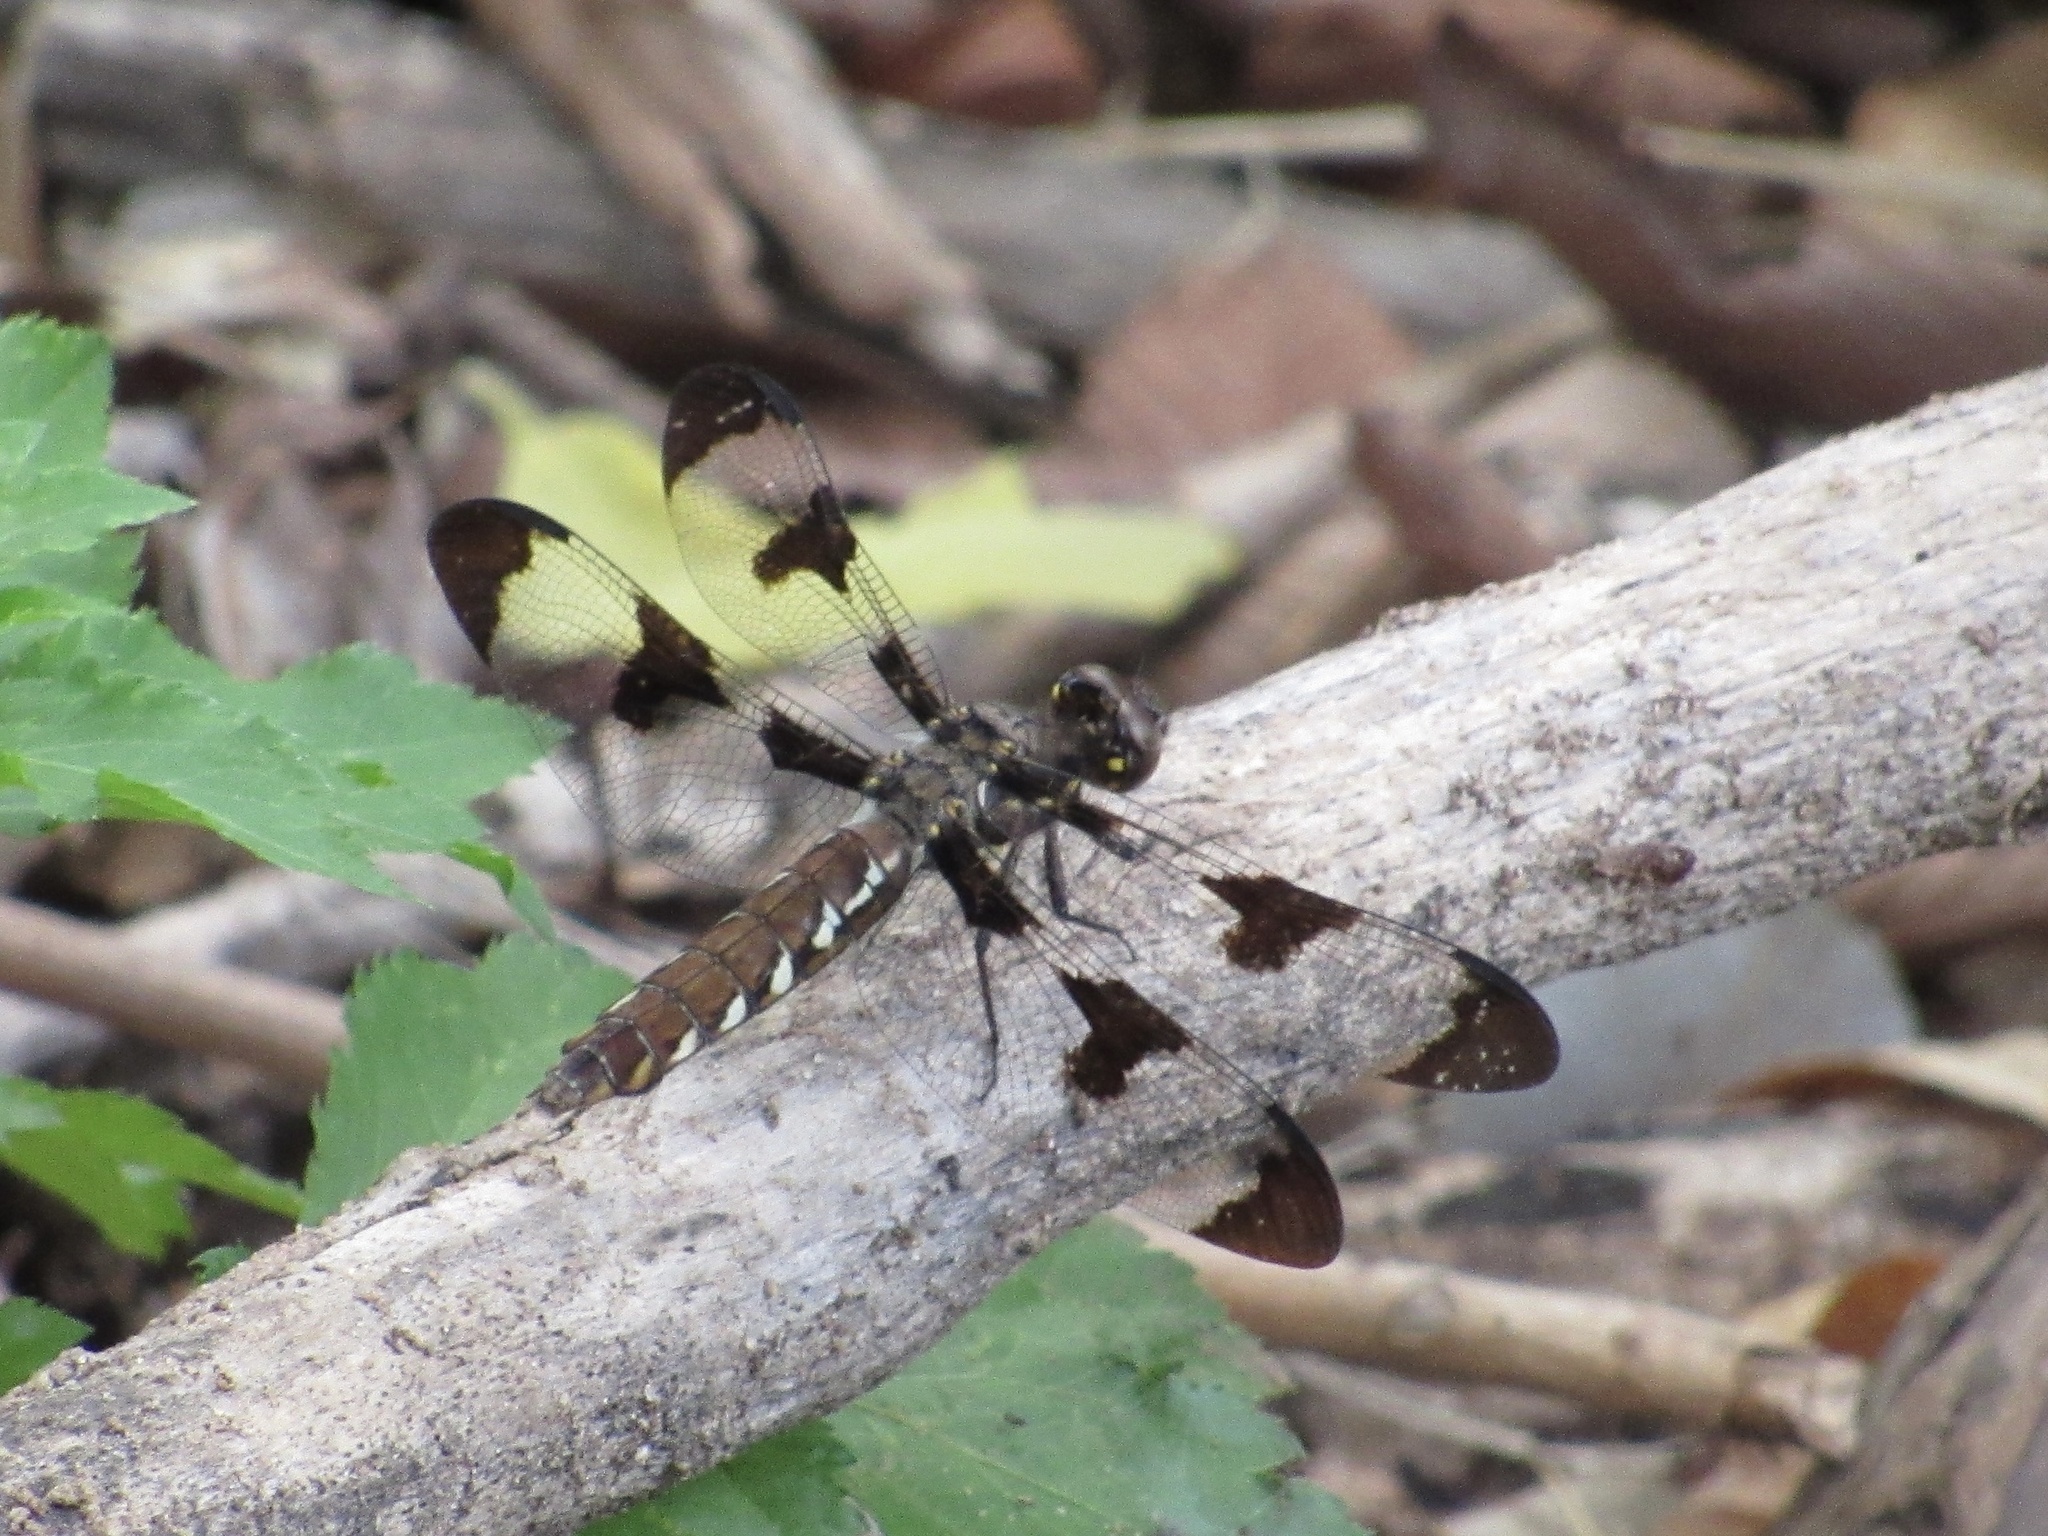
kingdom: Animalia
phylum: Arthropoda
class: Insecta
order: Odonata
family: Libellulidae
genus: Plathemis
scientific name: Plathemis lydia
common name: Common whitetail
